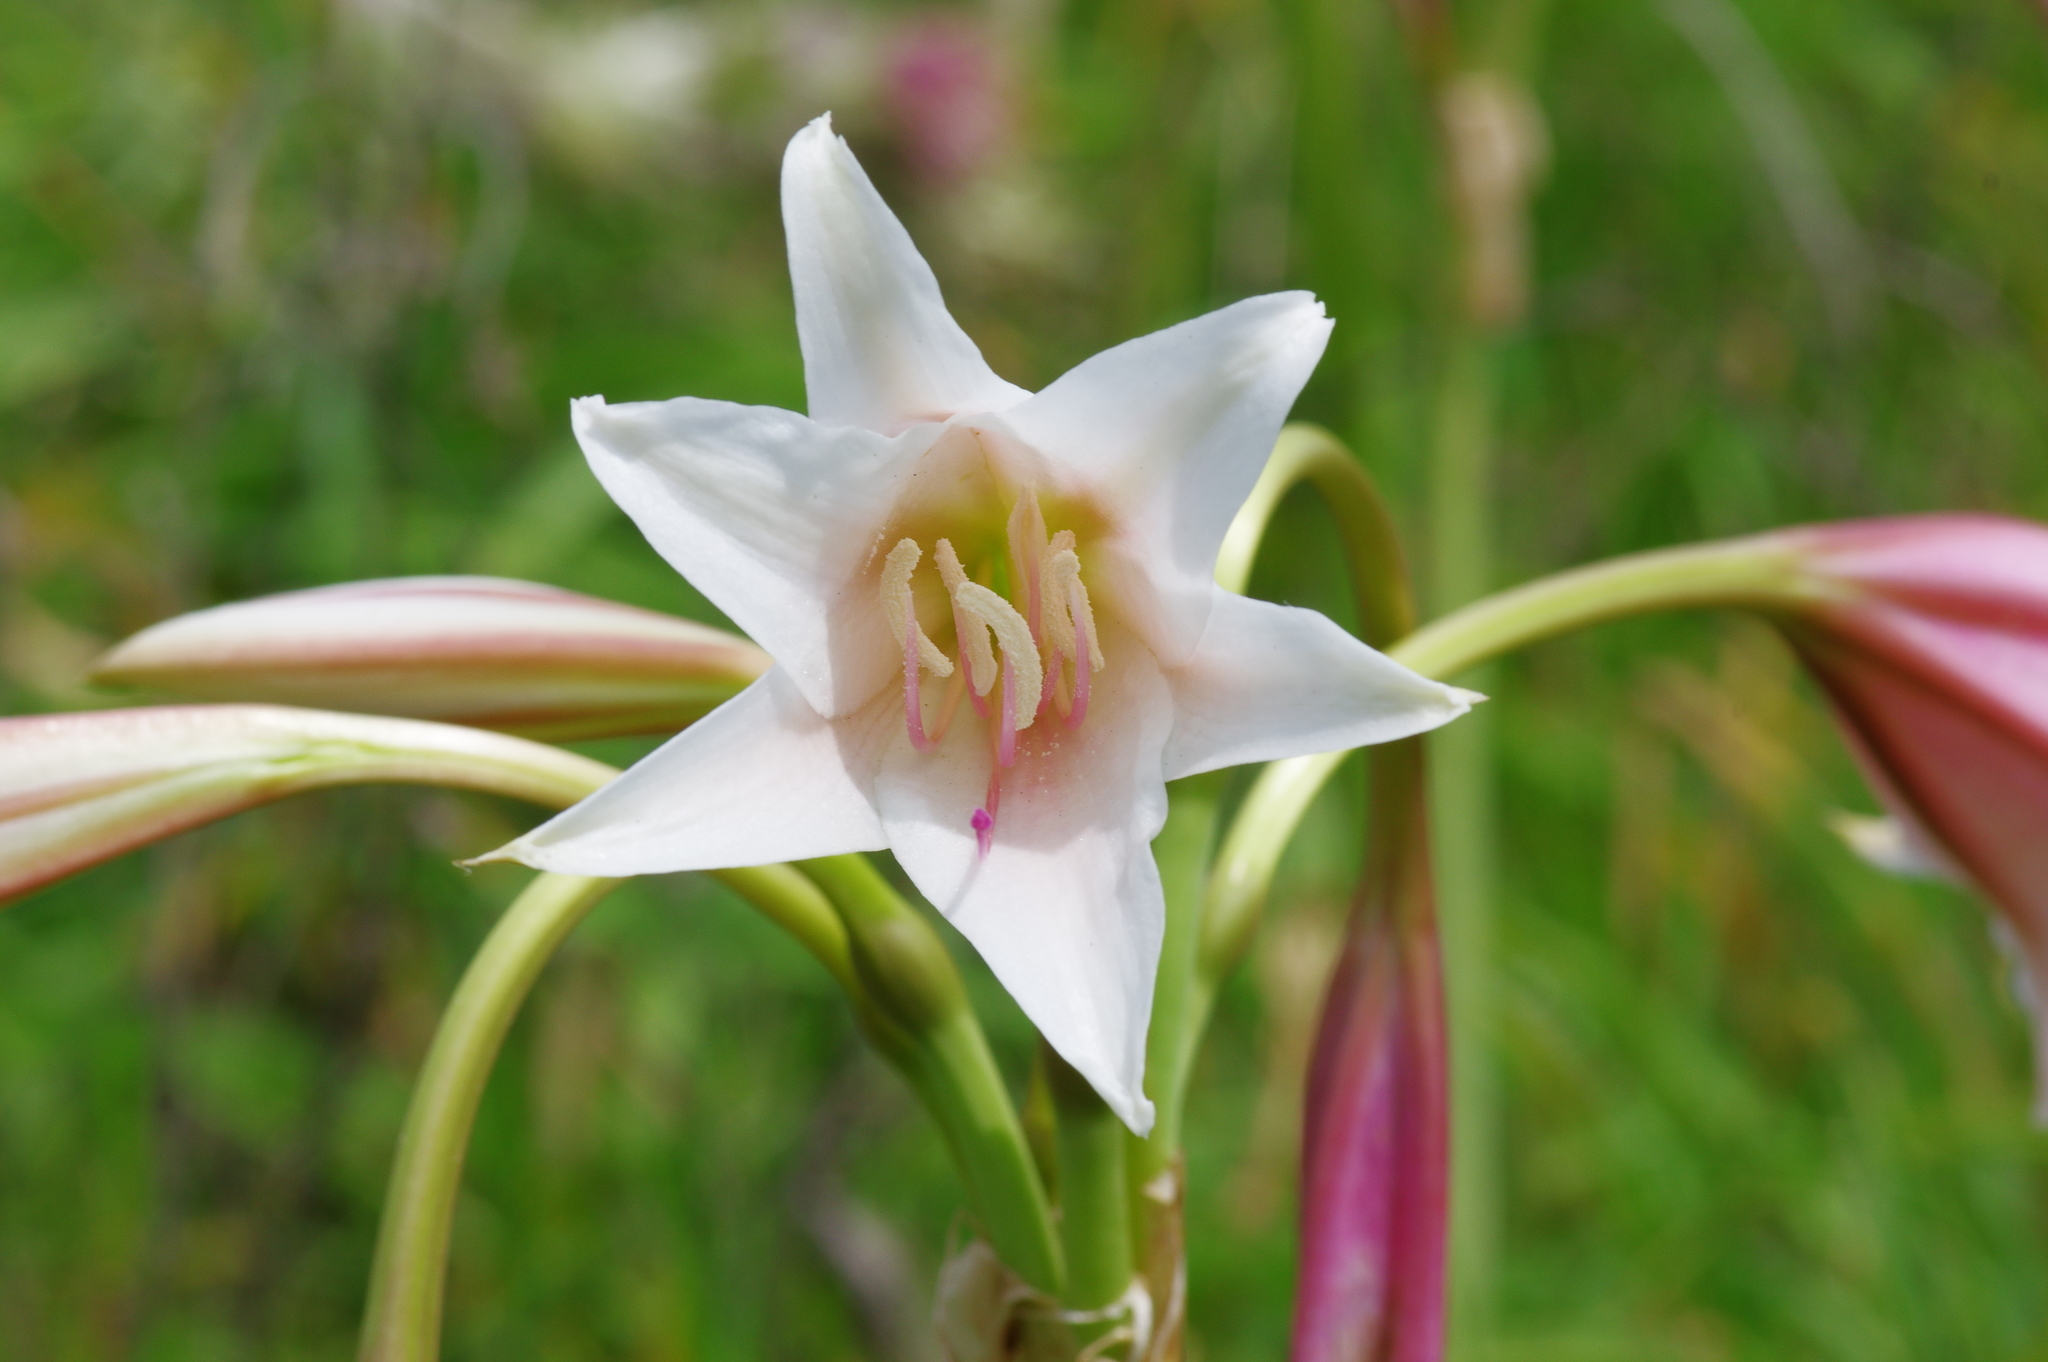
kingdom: Plantae
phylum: Tracheophyta
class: Liliopsida
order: Asparagales
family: Amaryllidaceae
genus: Crinum
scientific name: Crinum bulbispermum
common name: Hardy swamplily
